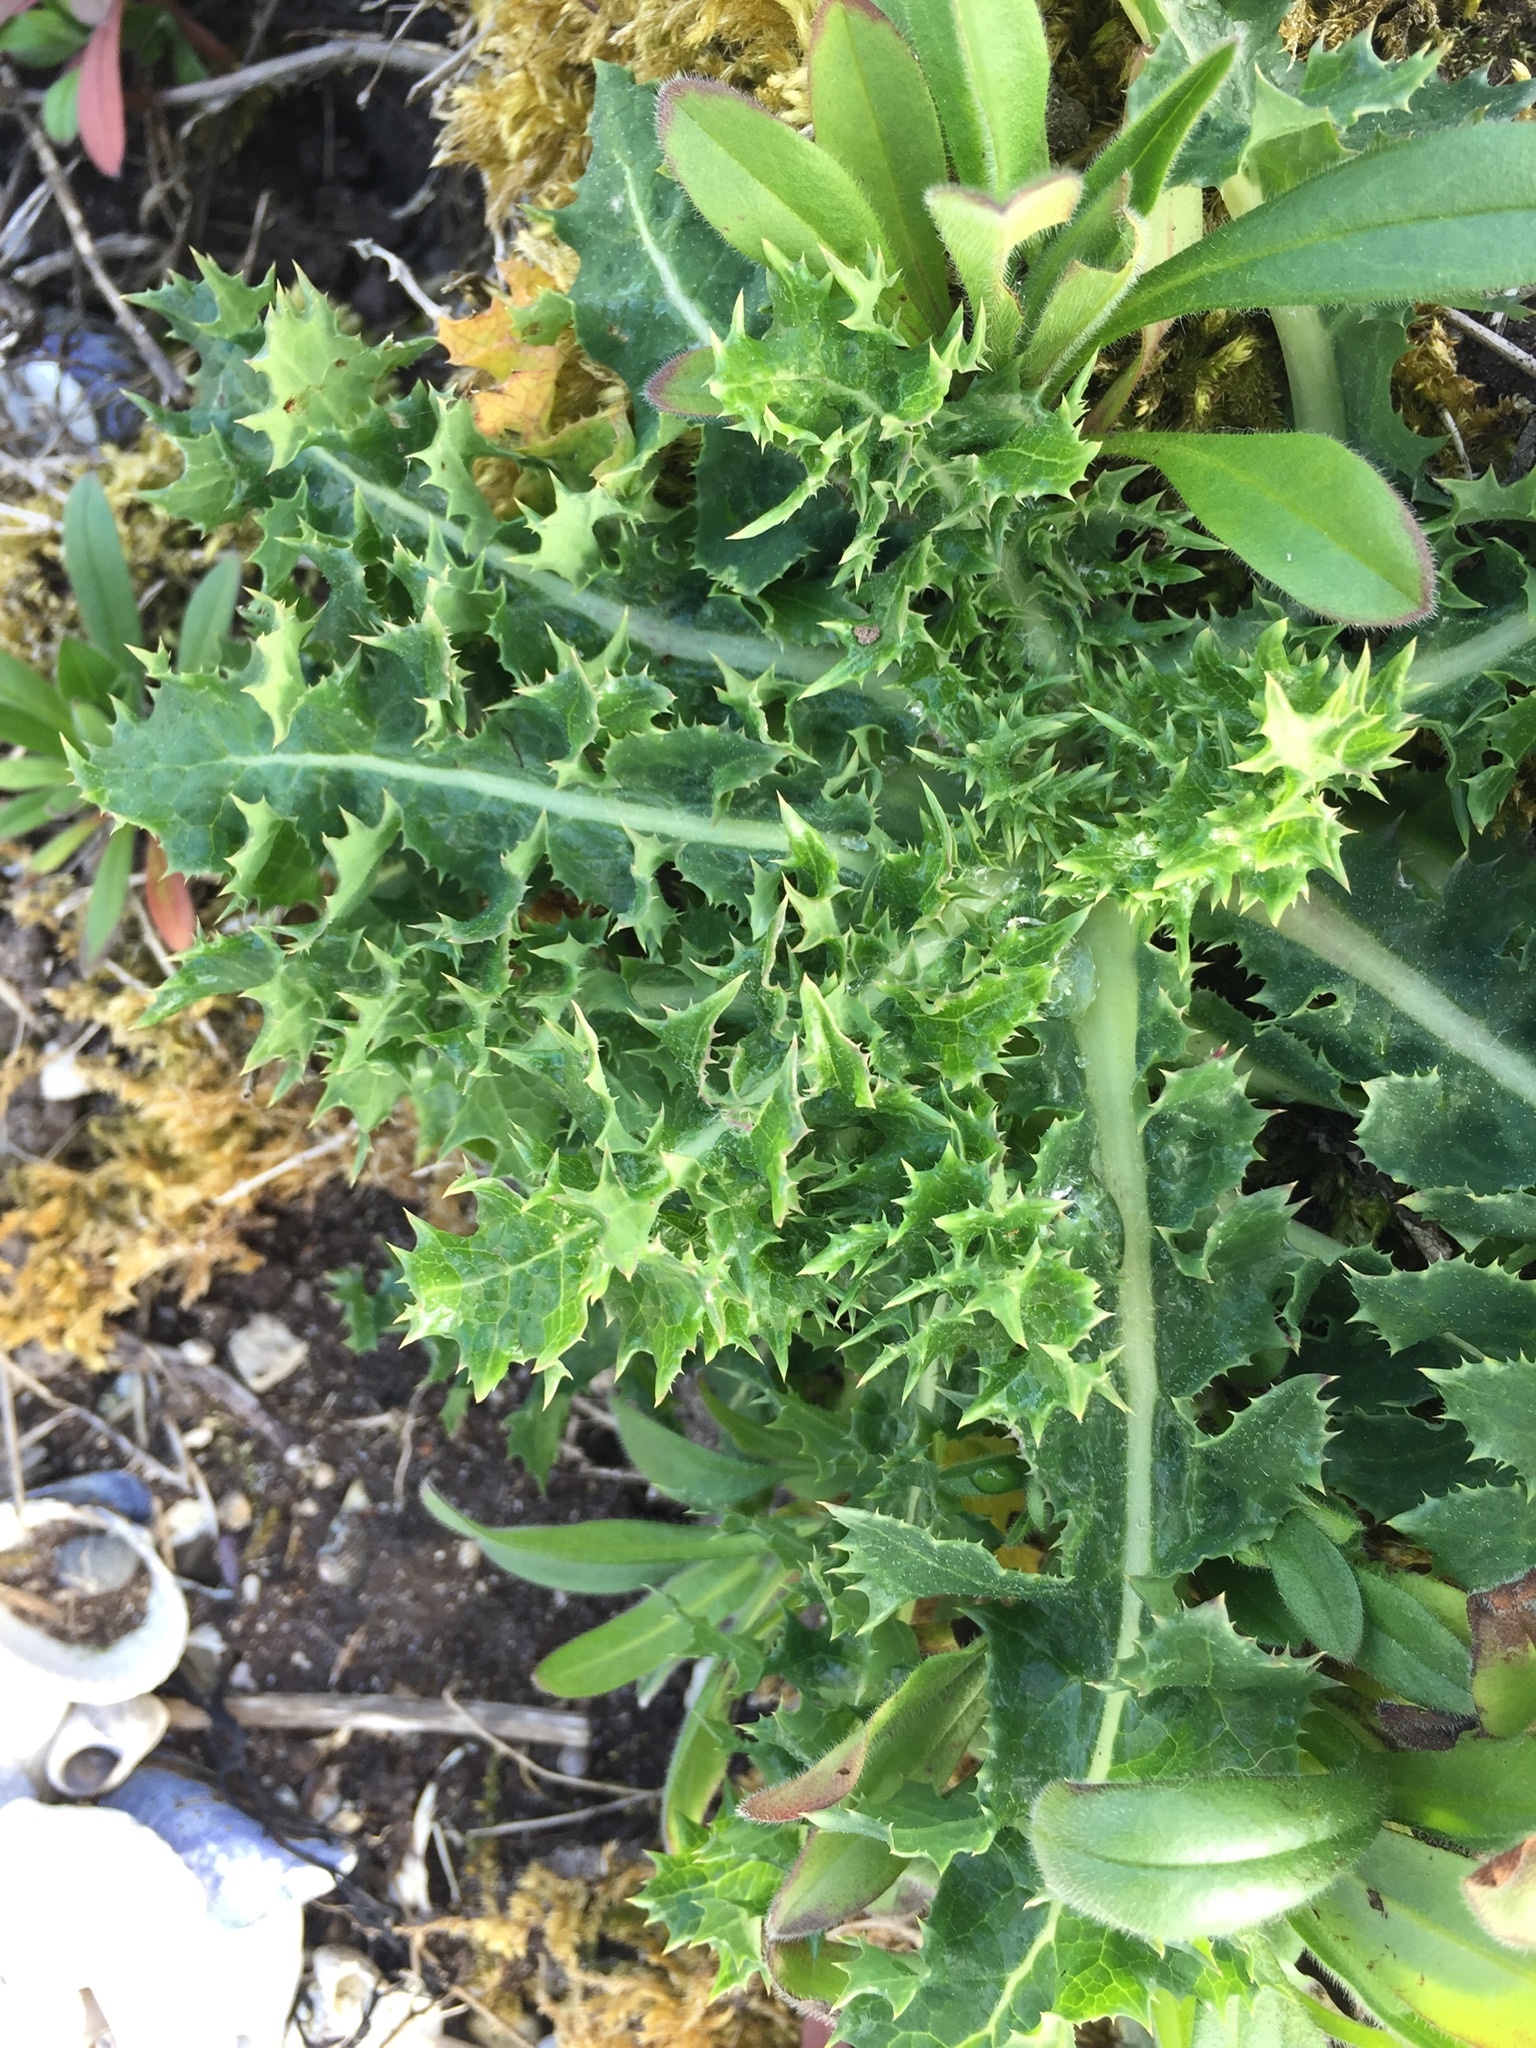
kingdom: Plantae
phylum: Tracheophyta
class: Magnoliopsida
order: Asterales
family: Asteraceae
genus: Sonchus
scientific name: Sonchus asper
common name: Prickly sow-thistle
